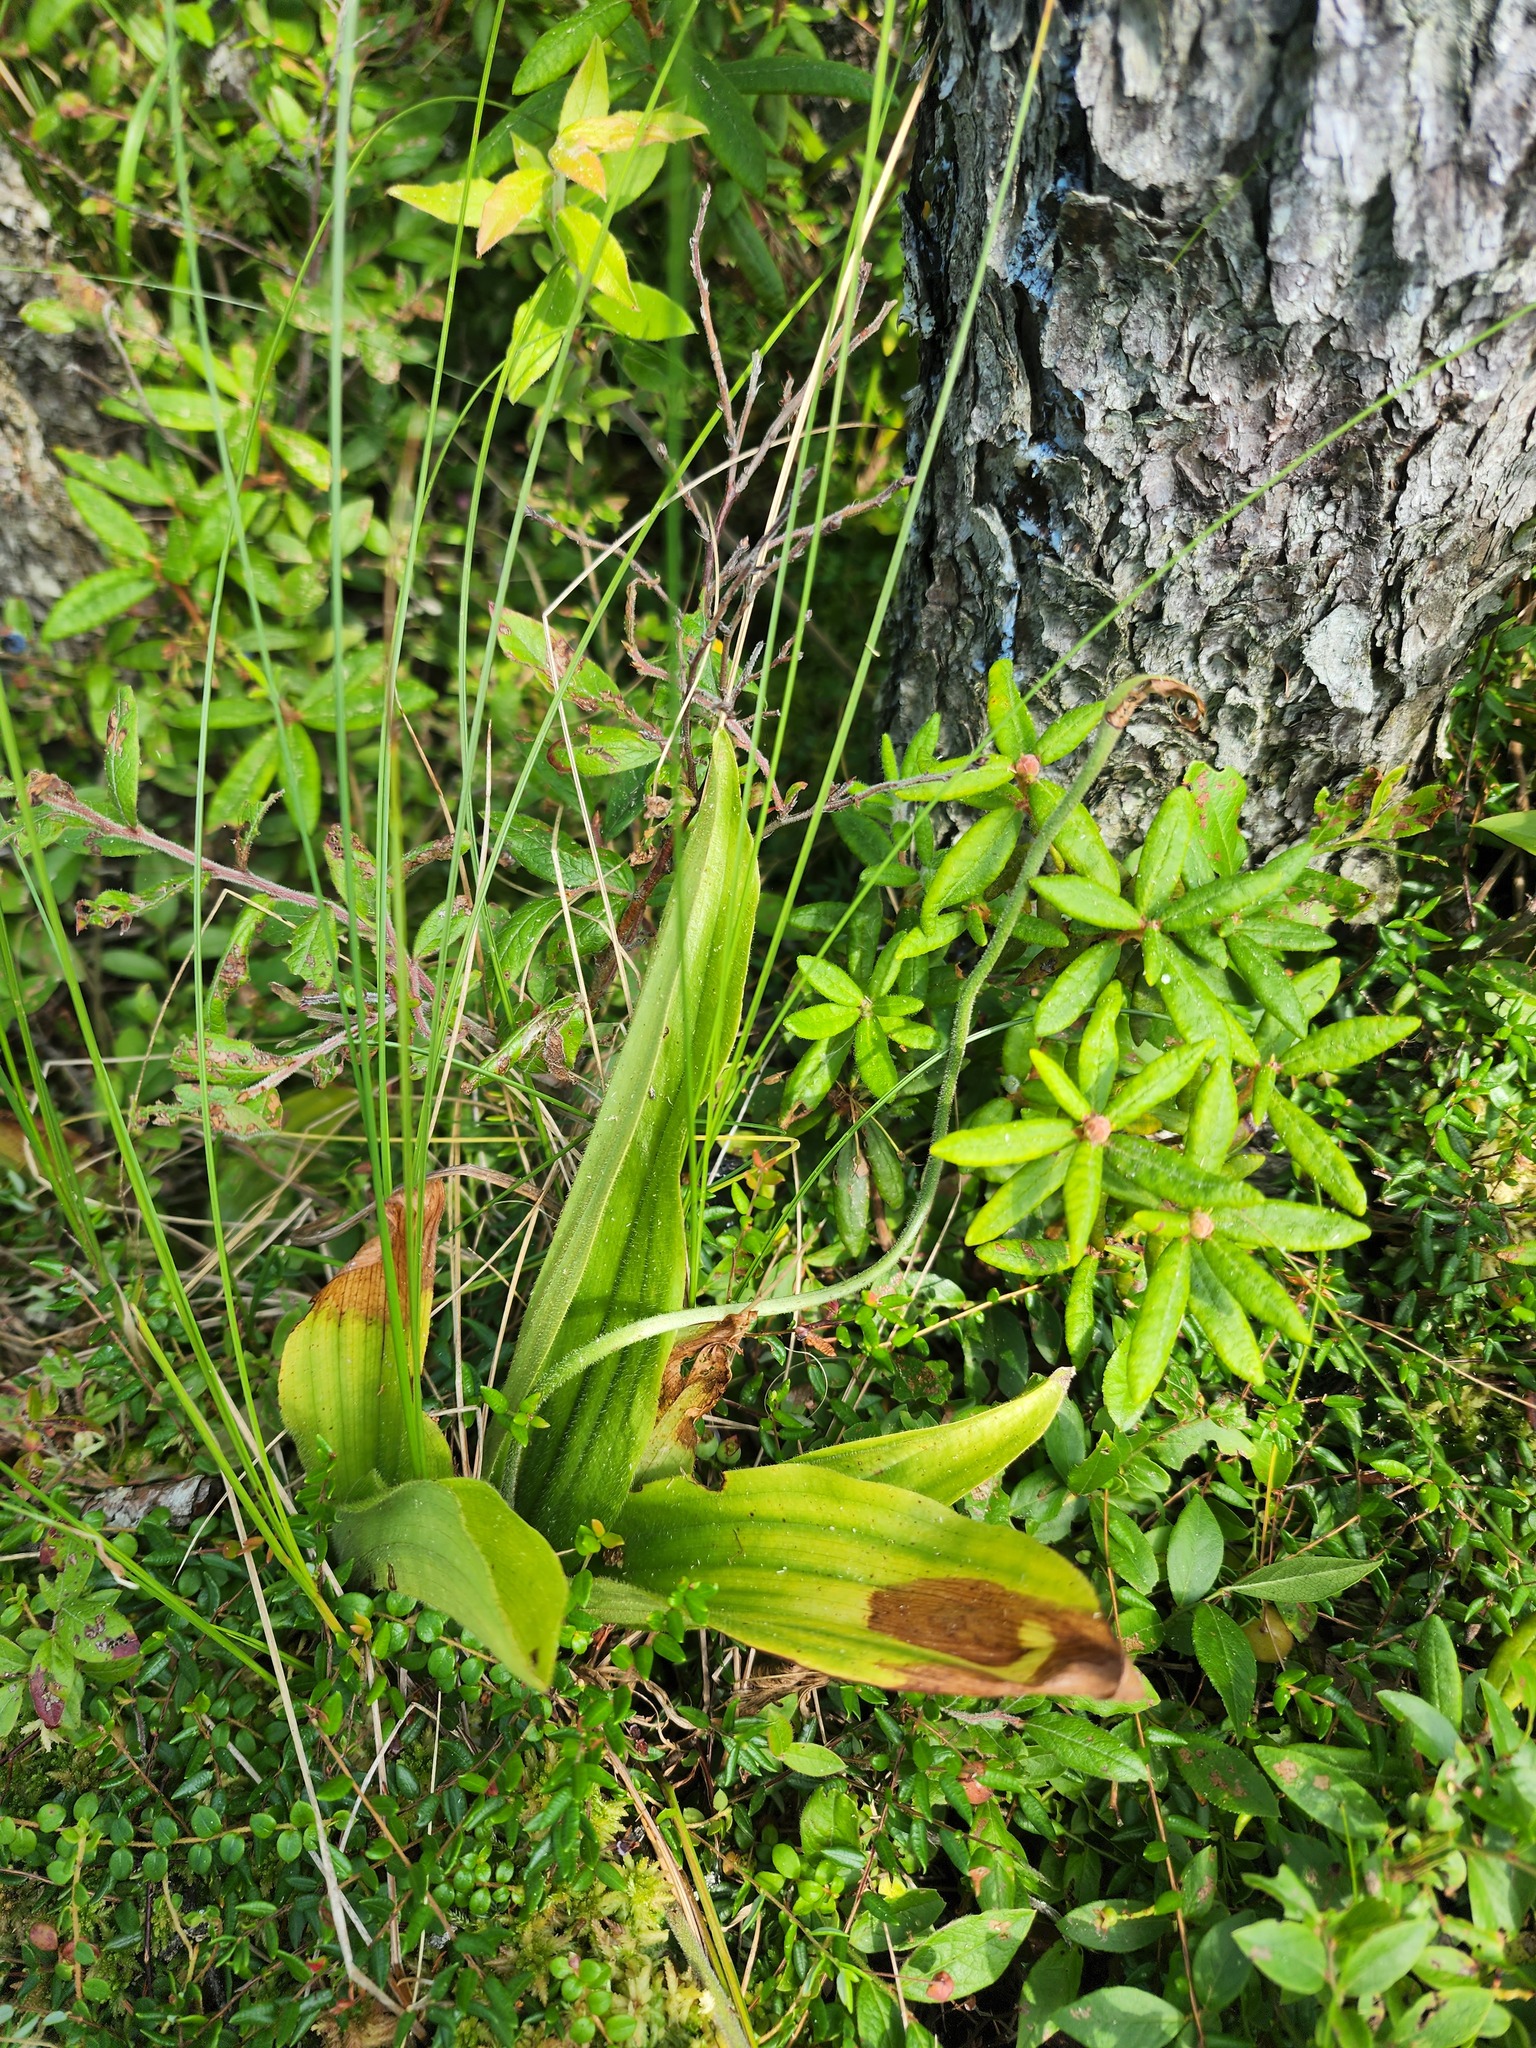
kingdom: Plantae
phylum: Tracheophyta
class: Liliopsida
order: Asparagales
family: Orchidaceae
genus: Cypripedium
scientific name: Cypripedium acaule
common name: Pink lady's-slipper
